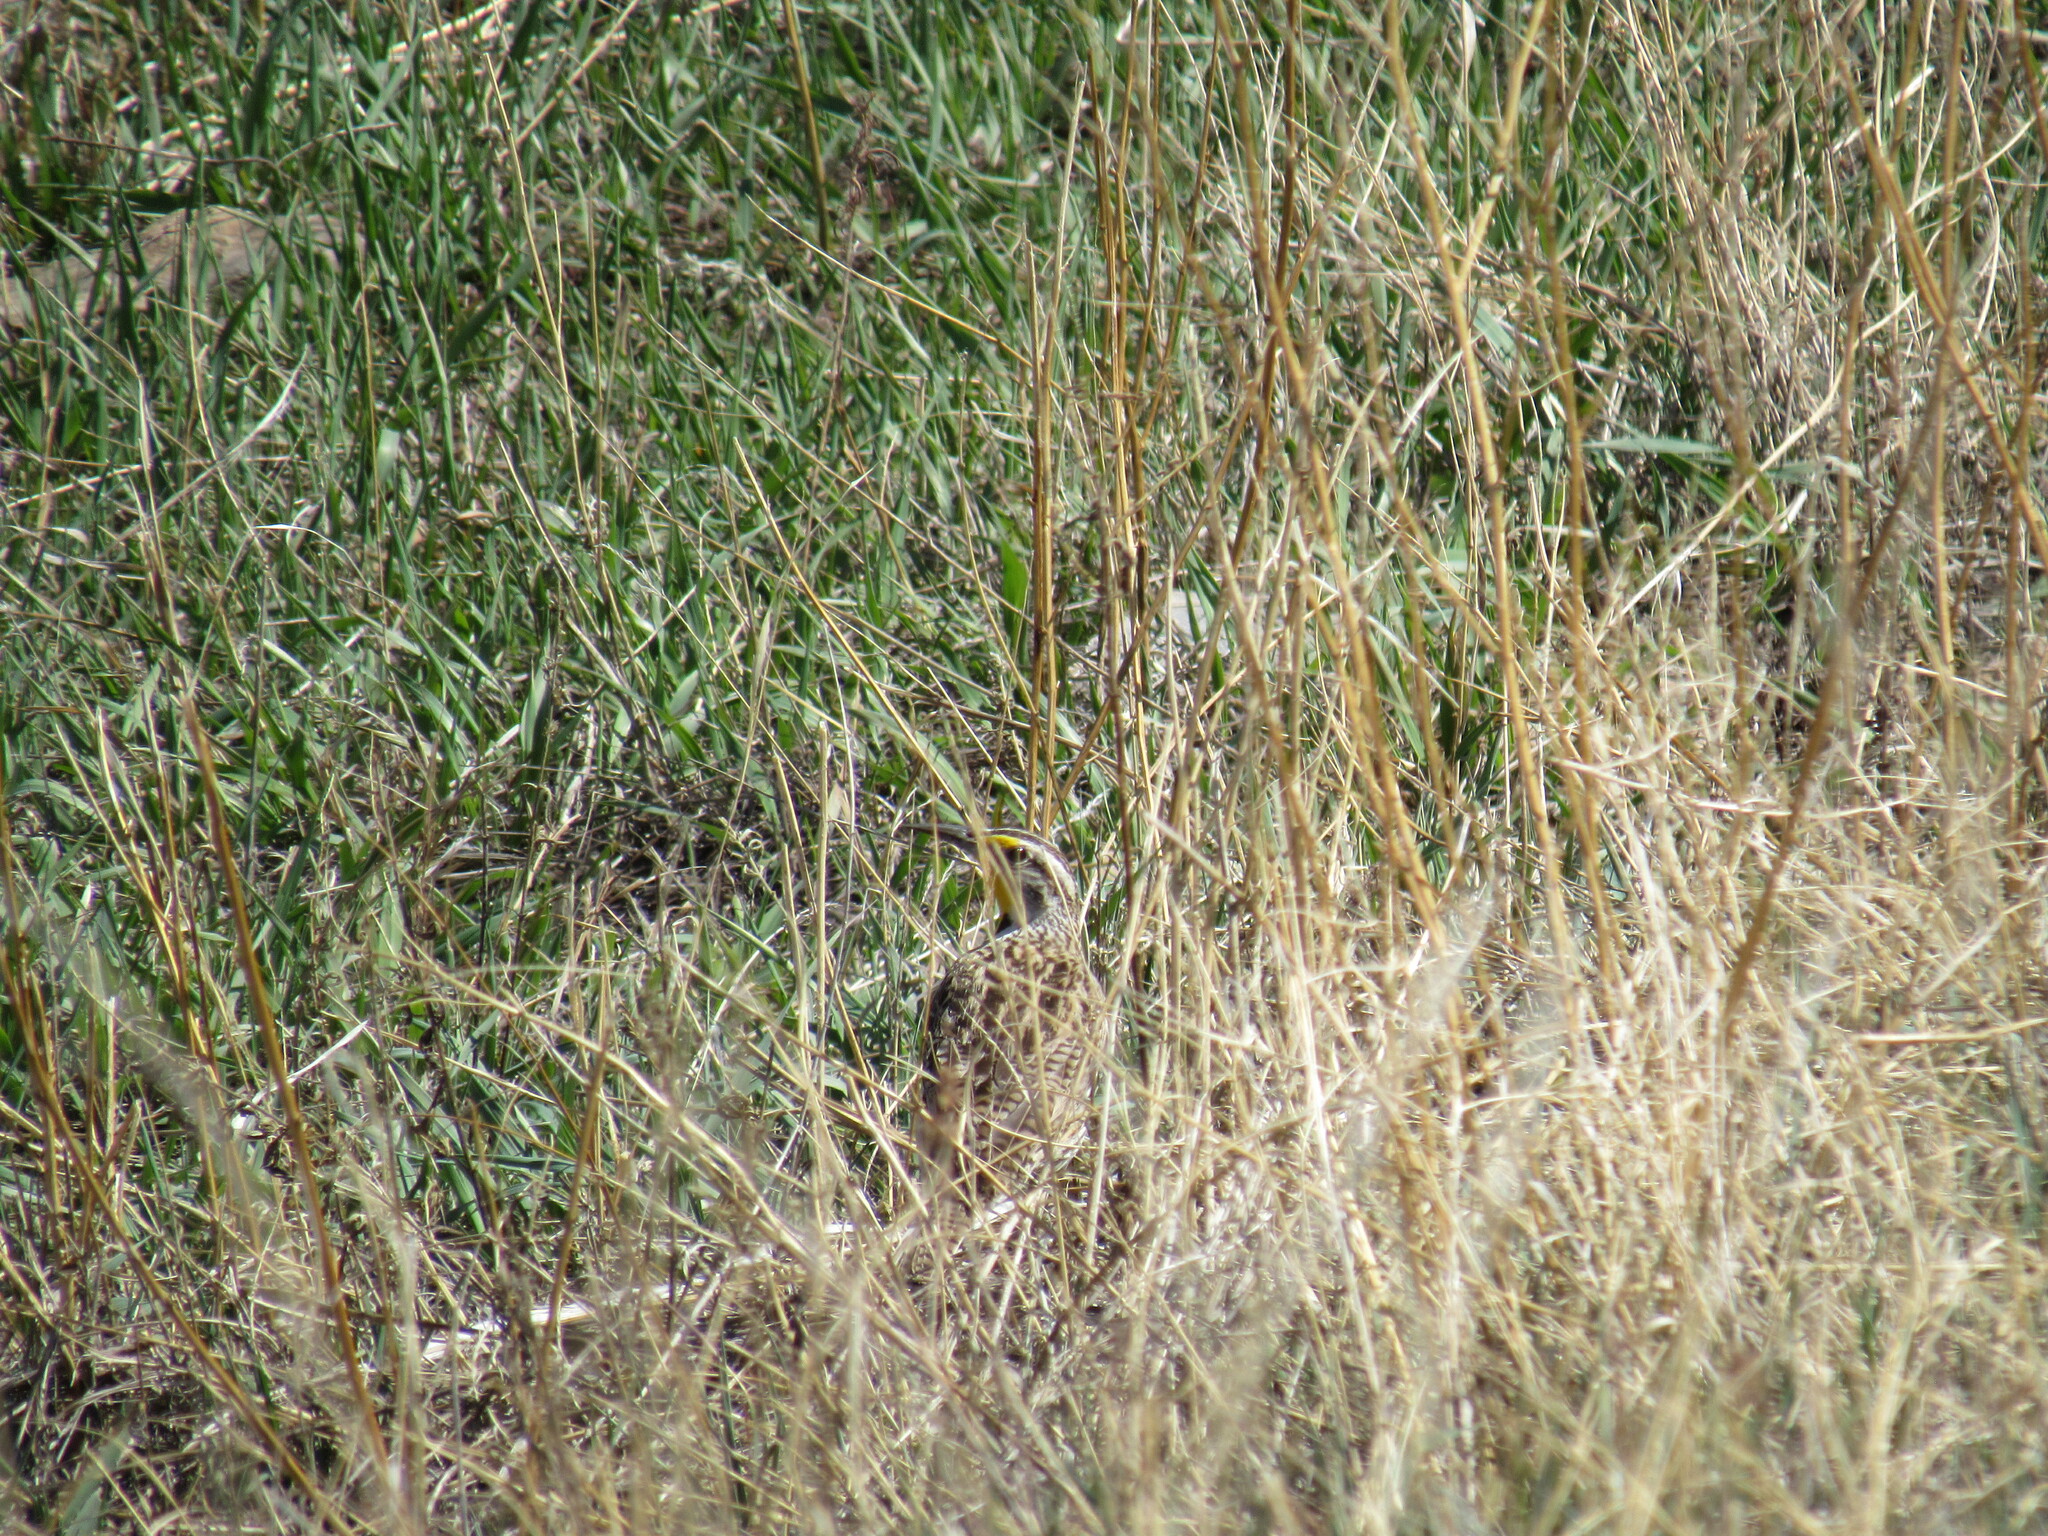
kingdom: Animalia
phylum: Chordata
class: Aves
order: Passeriformes
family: Icteridae
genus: Sturnella
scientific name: Sturnella neglecta
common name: Western meadowlark
